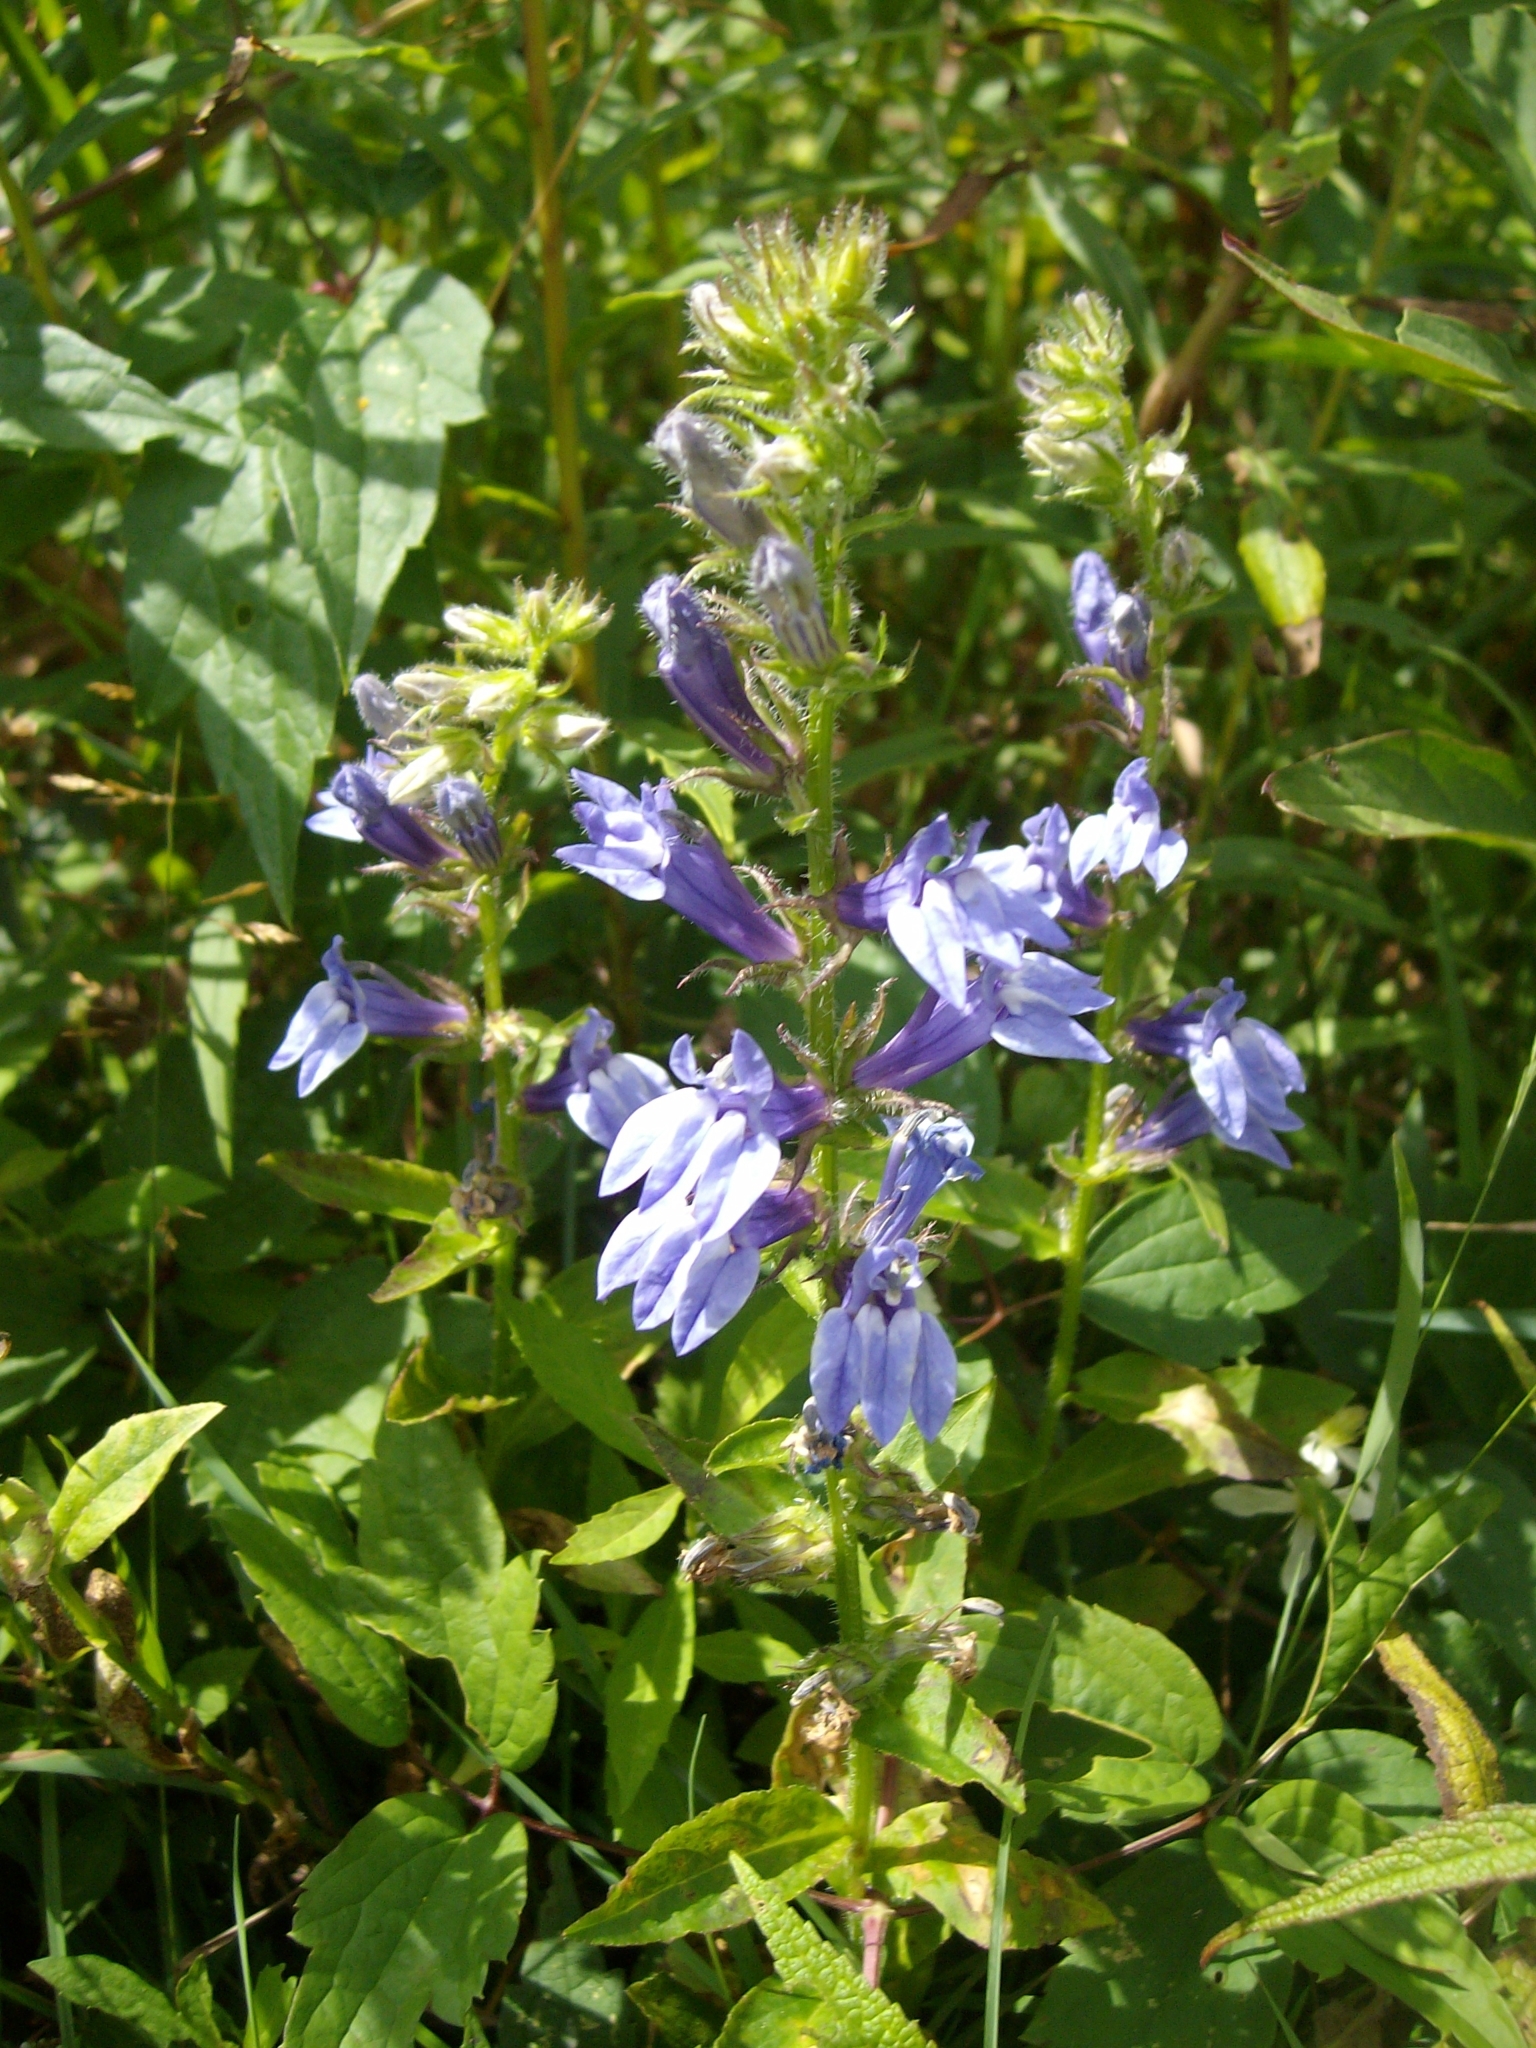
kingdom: Plantae
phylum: Tracheophyta
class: Magnoliopsida
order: Asterales
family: Campanulaceae
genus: Lobelia
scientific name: Lobelia siphilitica
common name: Great lobelia
